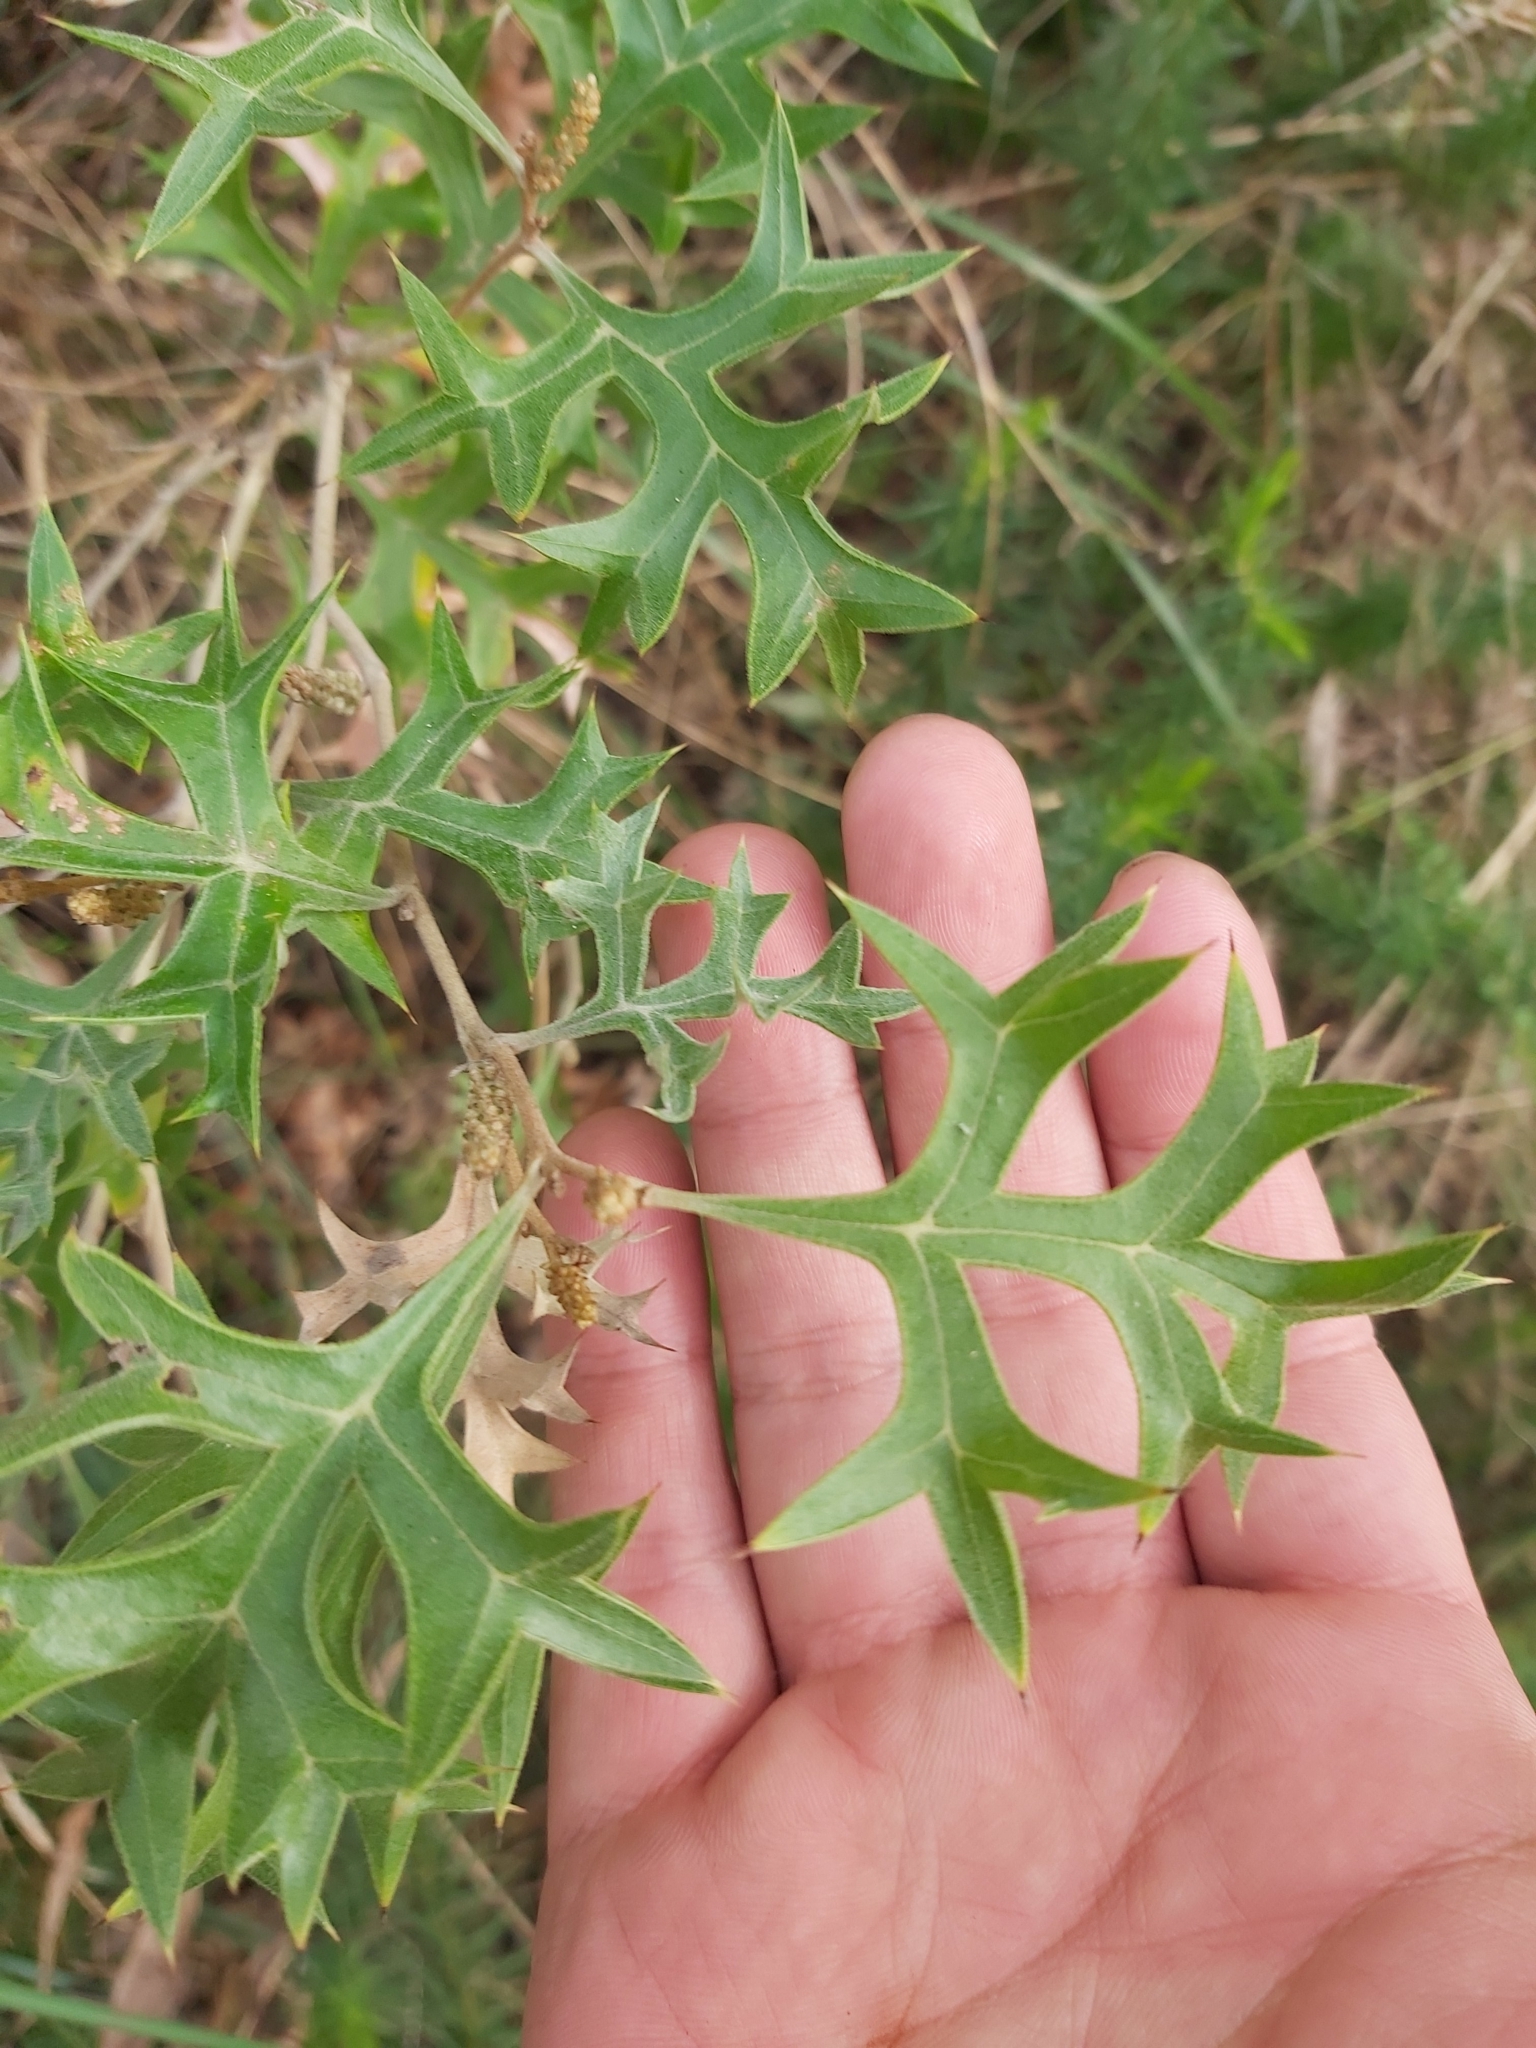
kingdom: Plantae
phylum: Tracheophyta
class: Magnoliopsida
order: Proteales
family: Proteaceae
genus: Grevillea
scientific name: Grevillea ramosissima
